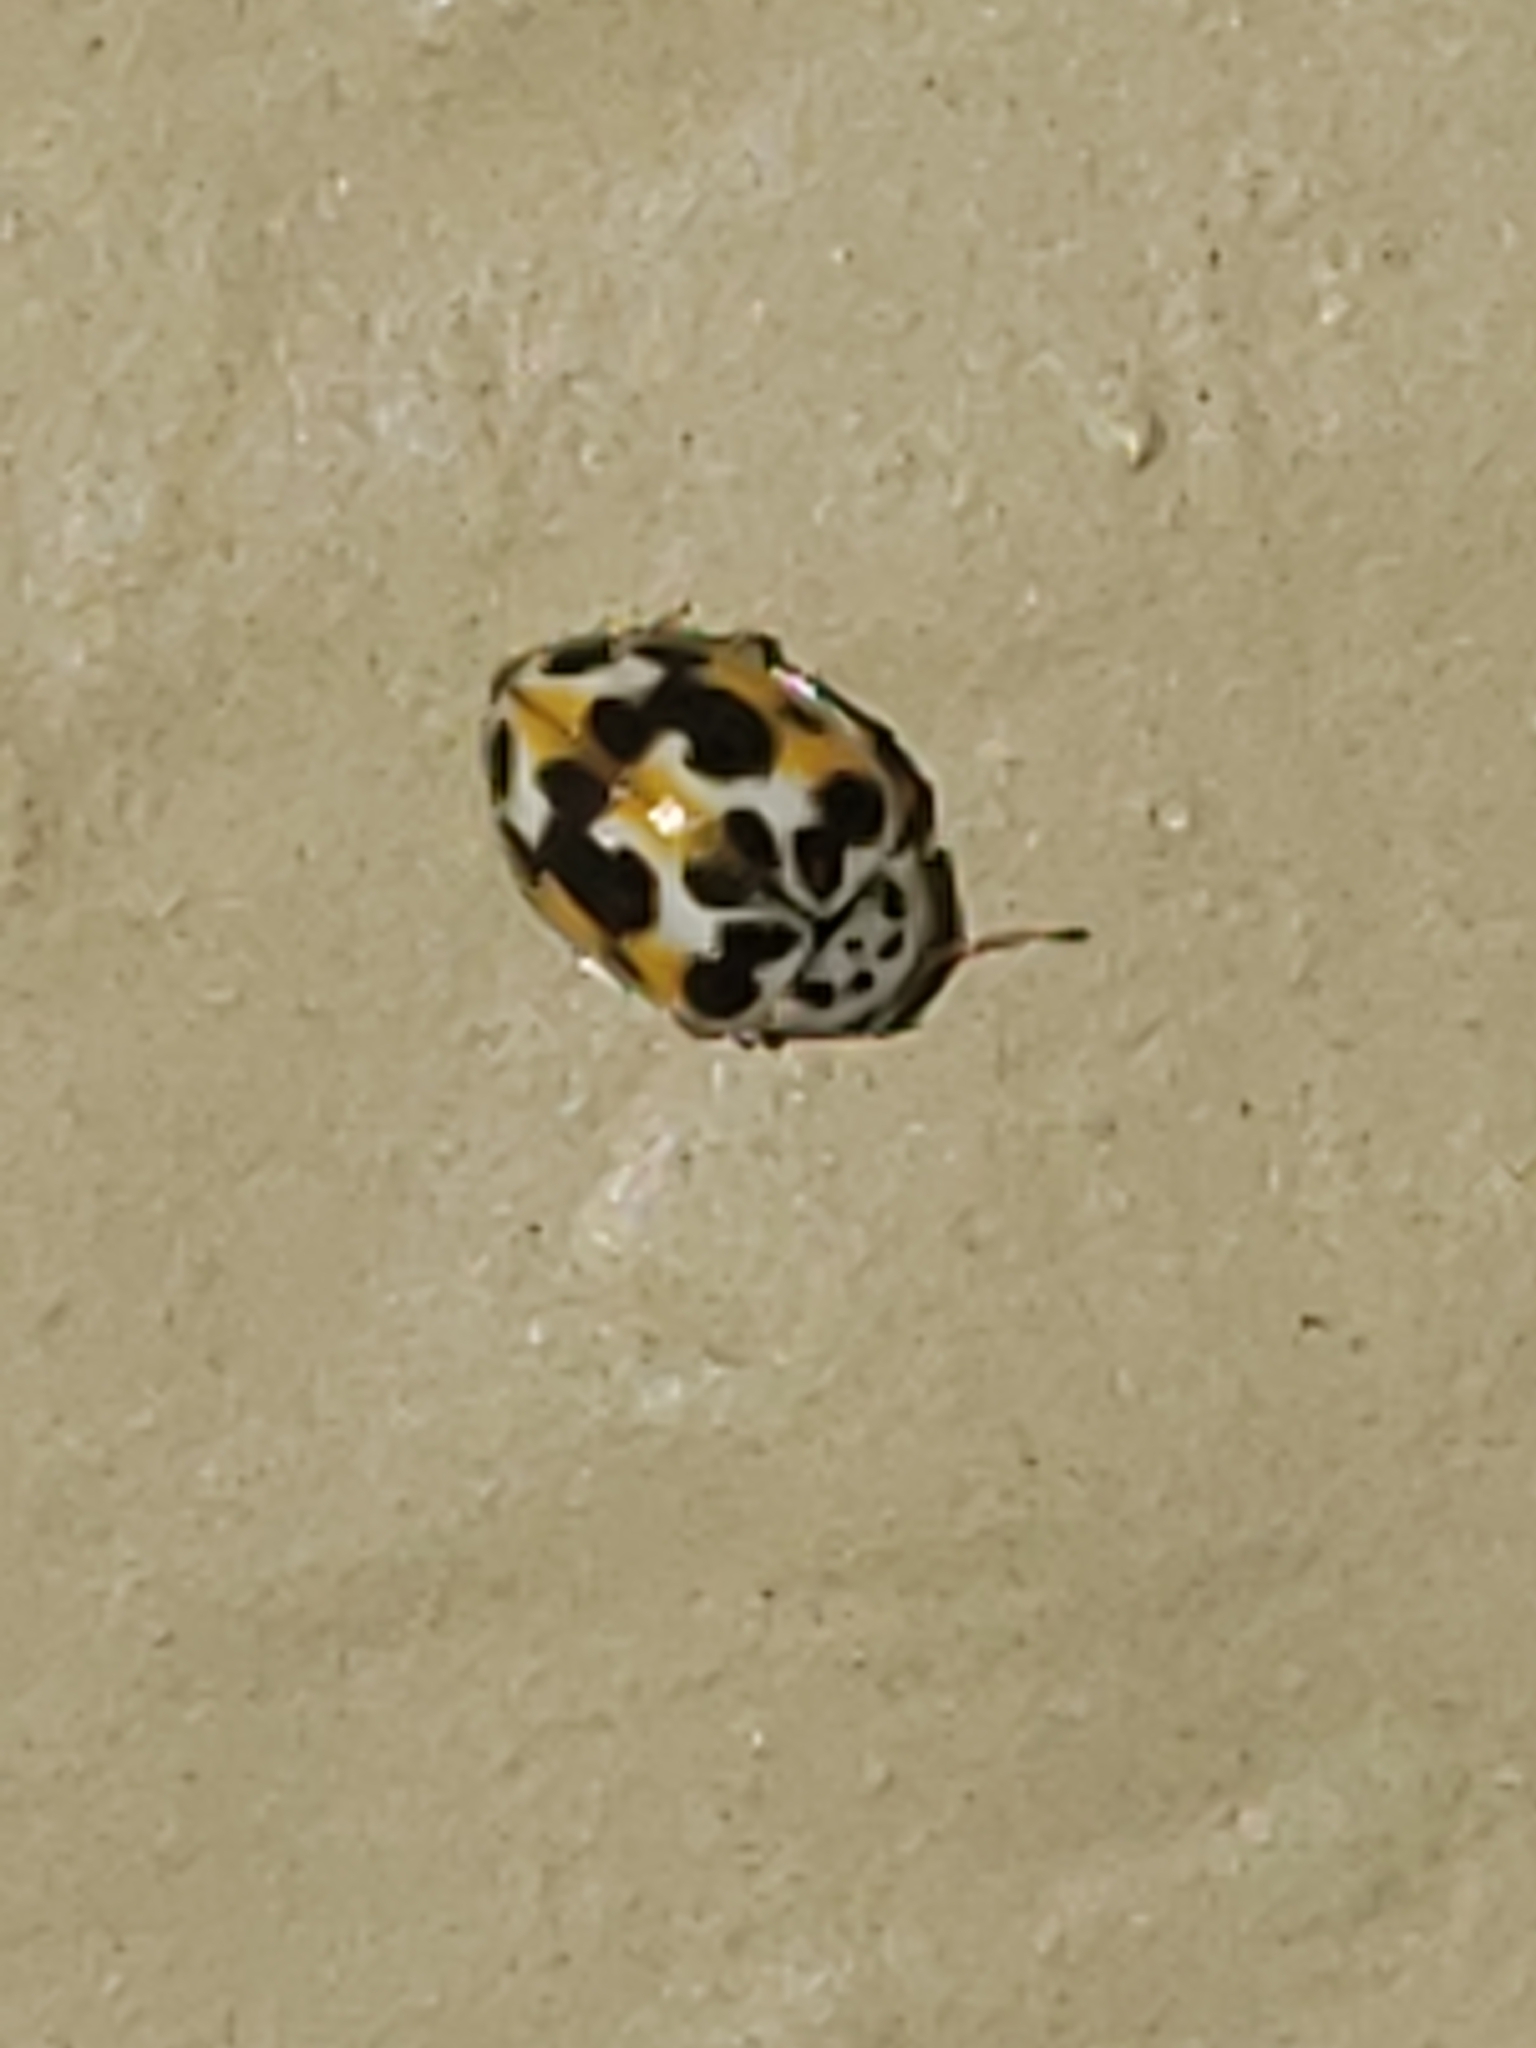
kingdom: Animalia
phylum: Arthropoda
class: Insecta
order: Coleoptera
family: Coccinellidae
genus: Psyllobora
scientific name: Psyllobora vigintimaculata
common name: Ladybird beetle
